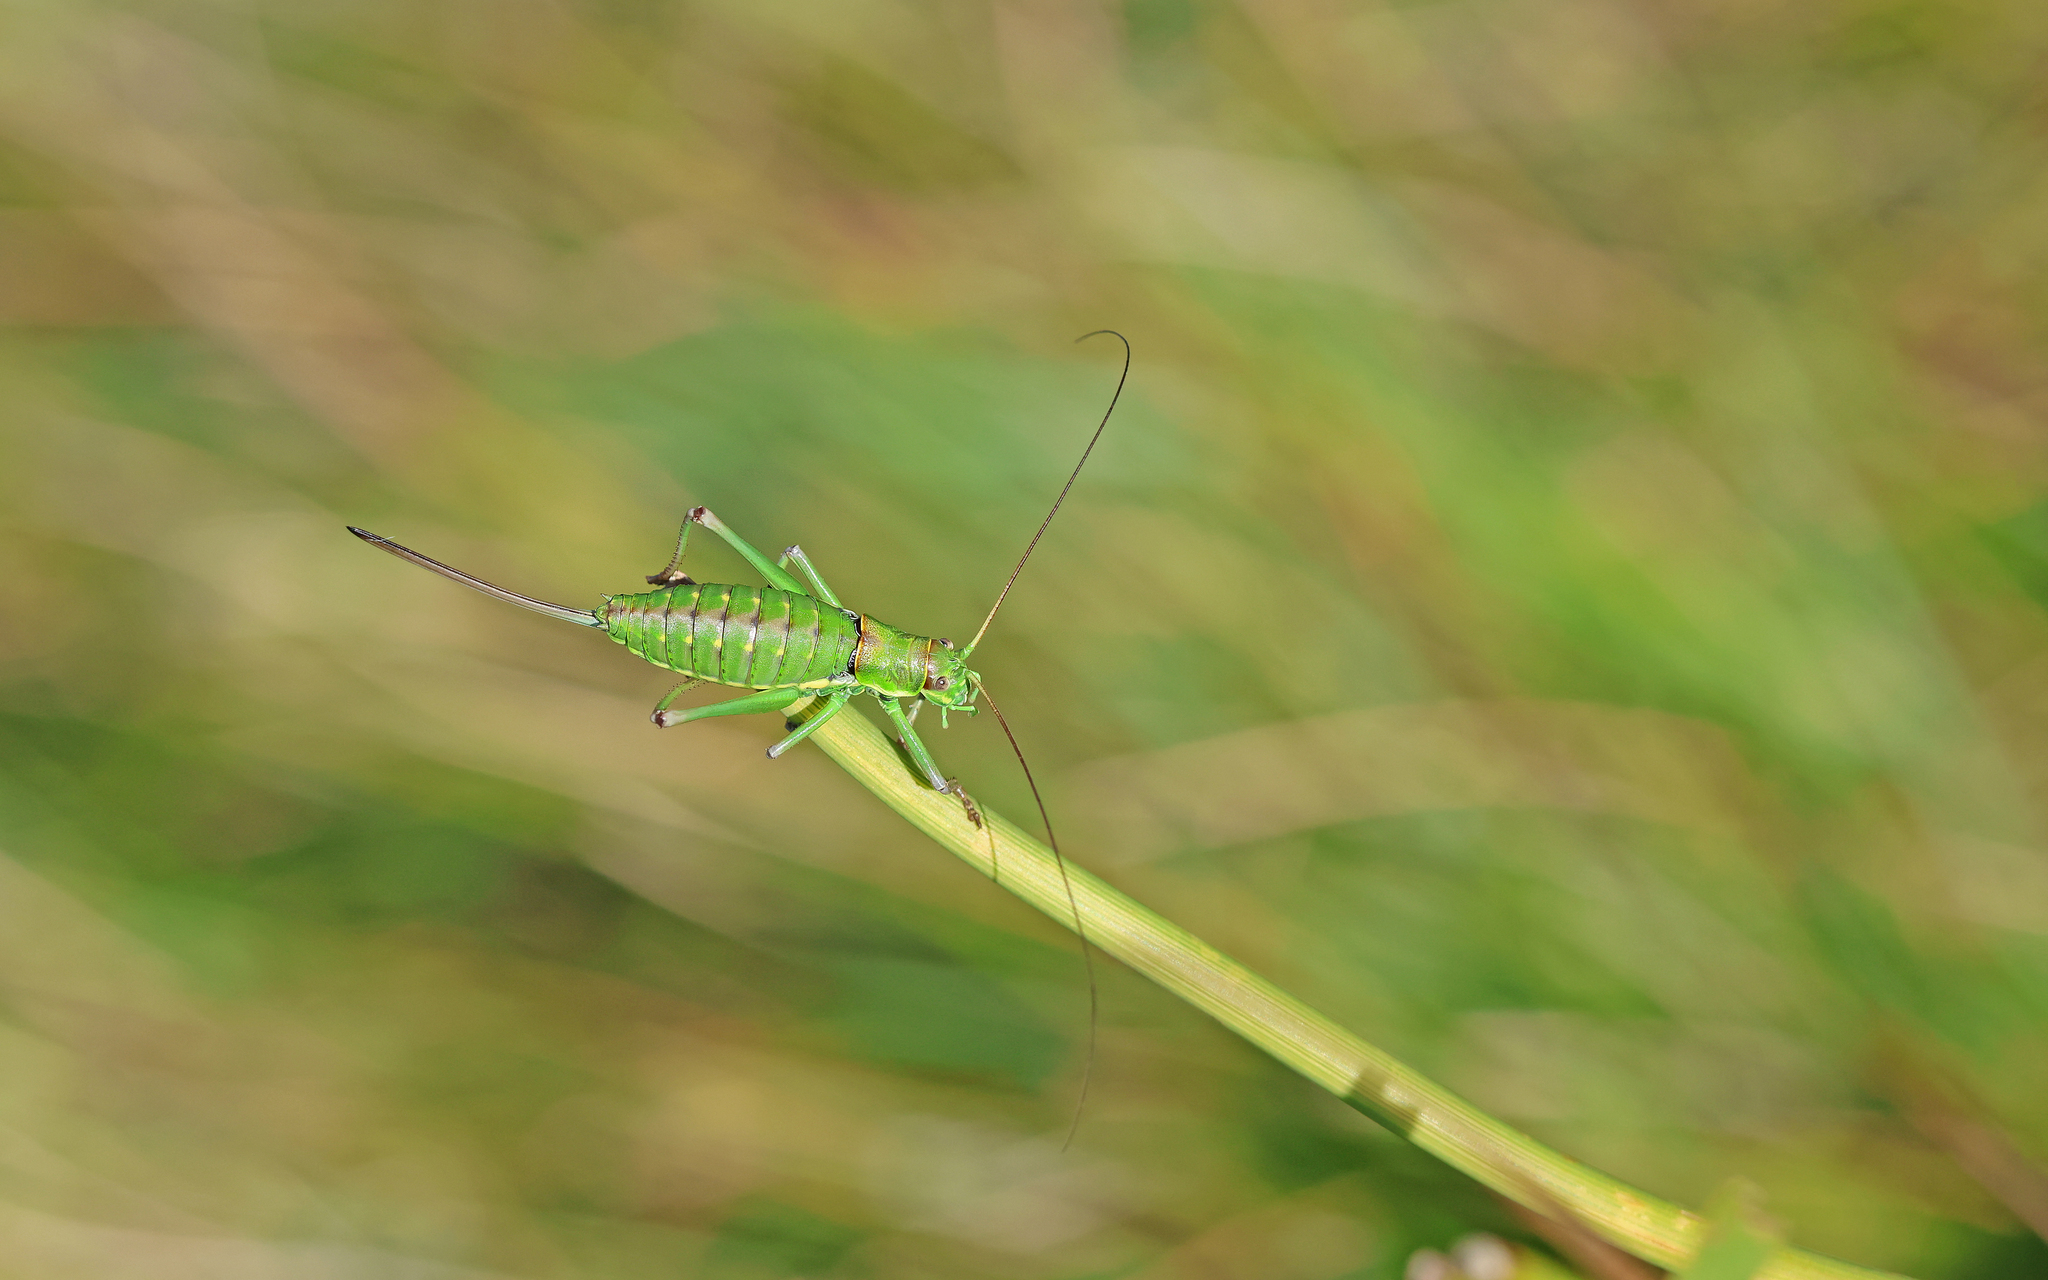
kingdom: Animalia
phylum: Arthropoda
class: Insecta
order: Orthoptera
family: Tettigoniidae
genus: Dinarippiger
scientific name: Dinarippiger discoidalis
